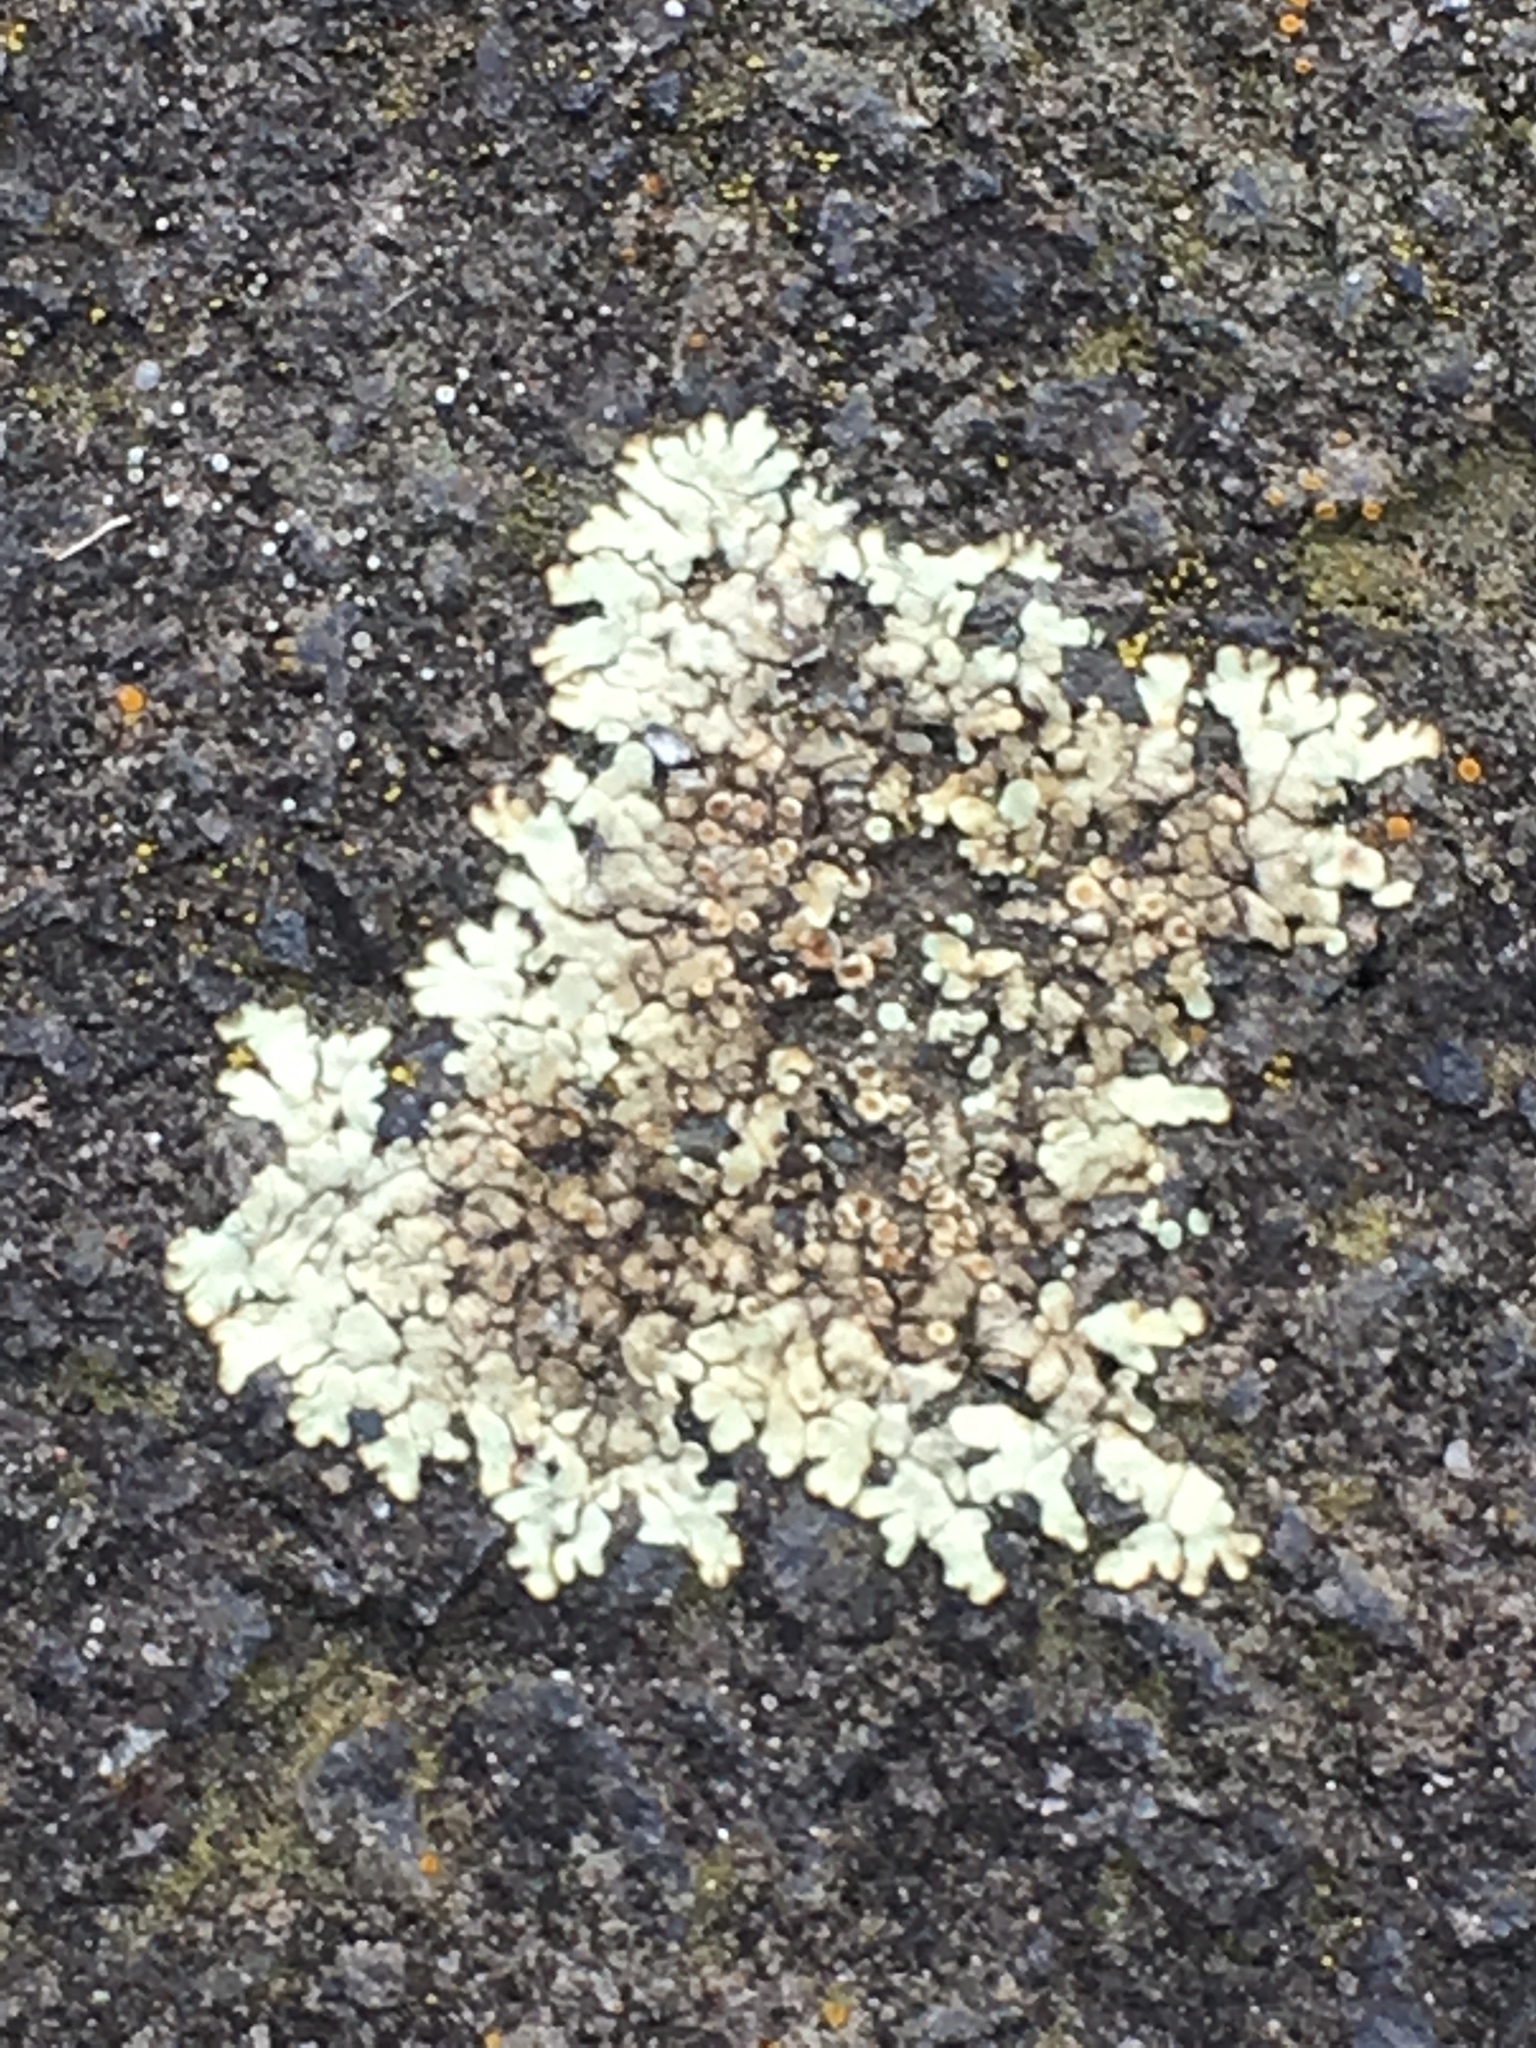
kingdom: Fungi
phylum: Ascomycota
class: Lecanoromycetes
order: Lecanorales
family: Lecanoraceae
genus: Protoparmeliopsis
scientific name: Protoparmeliopsis muralis
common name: Stonewall rim lichen
